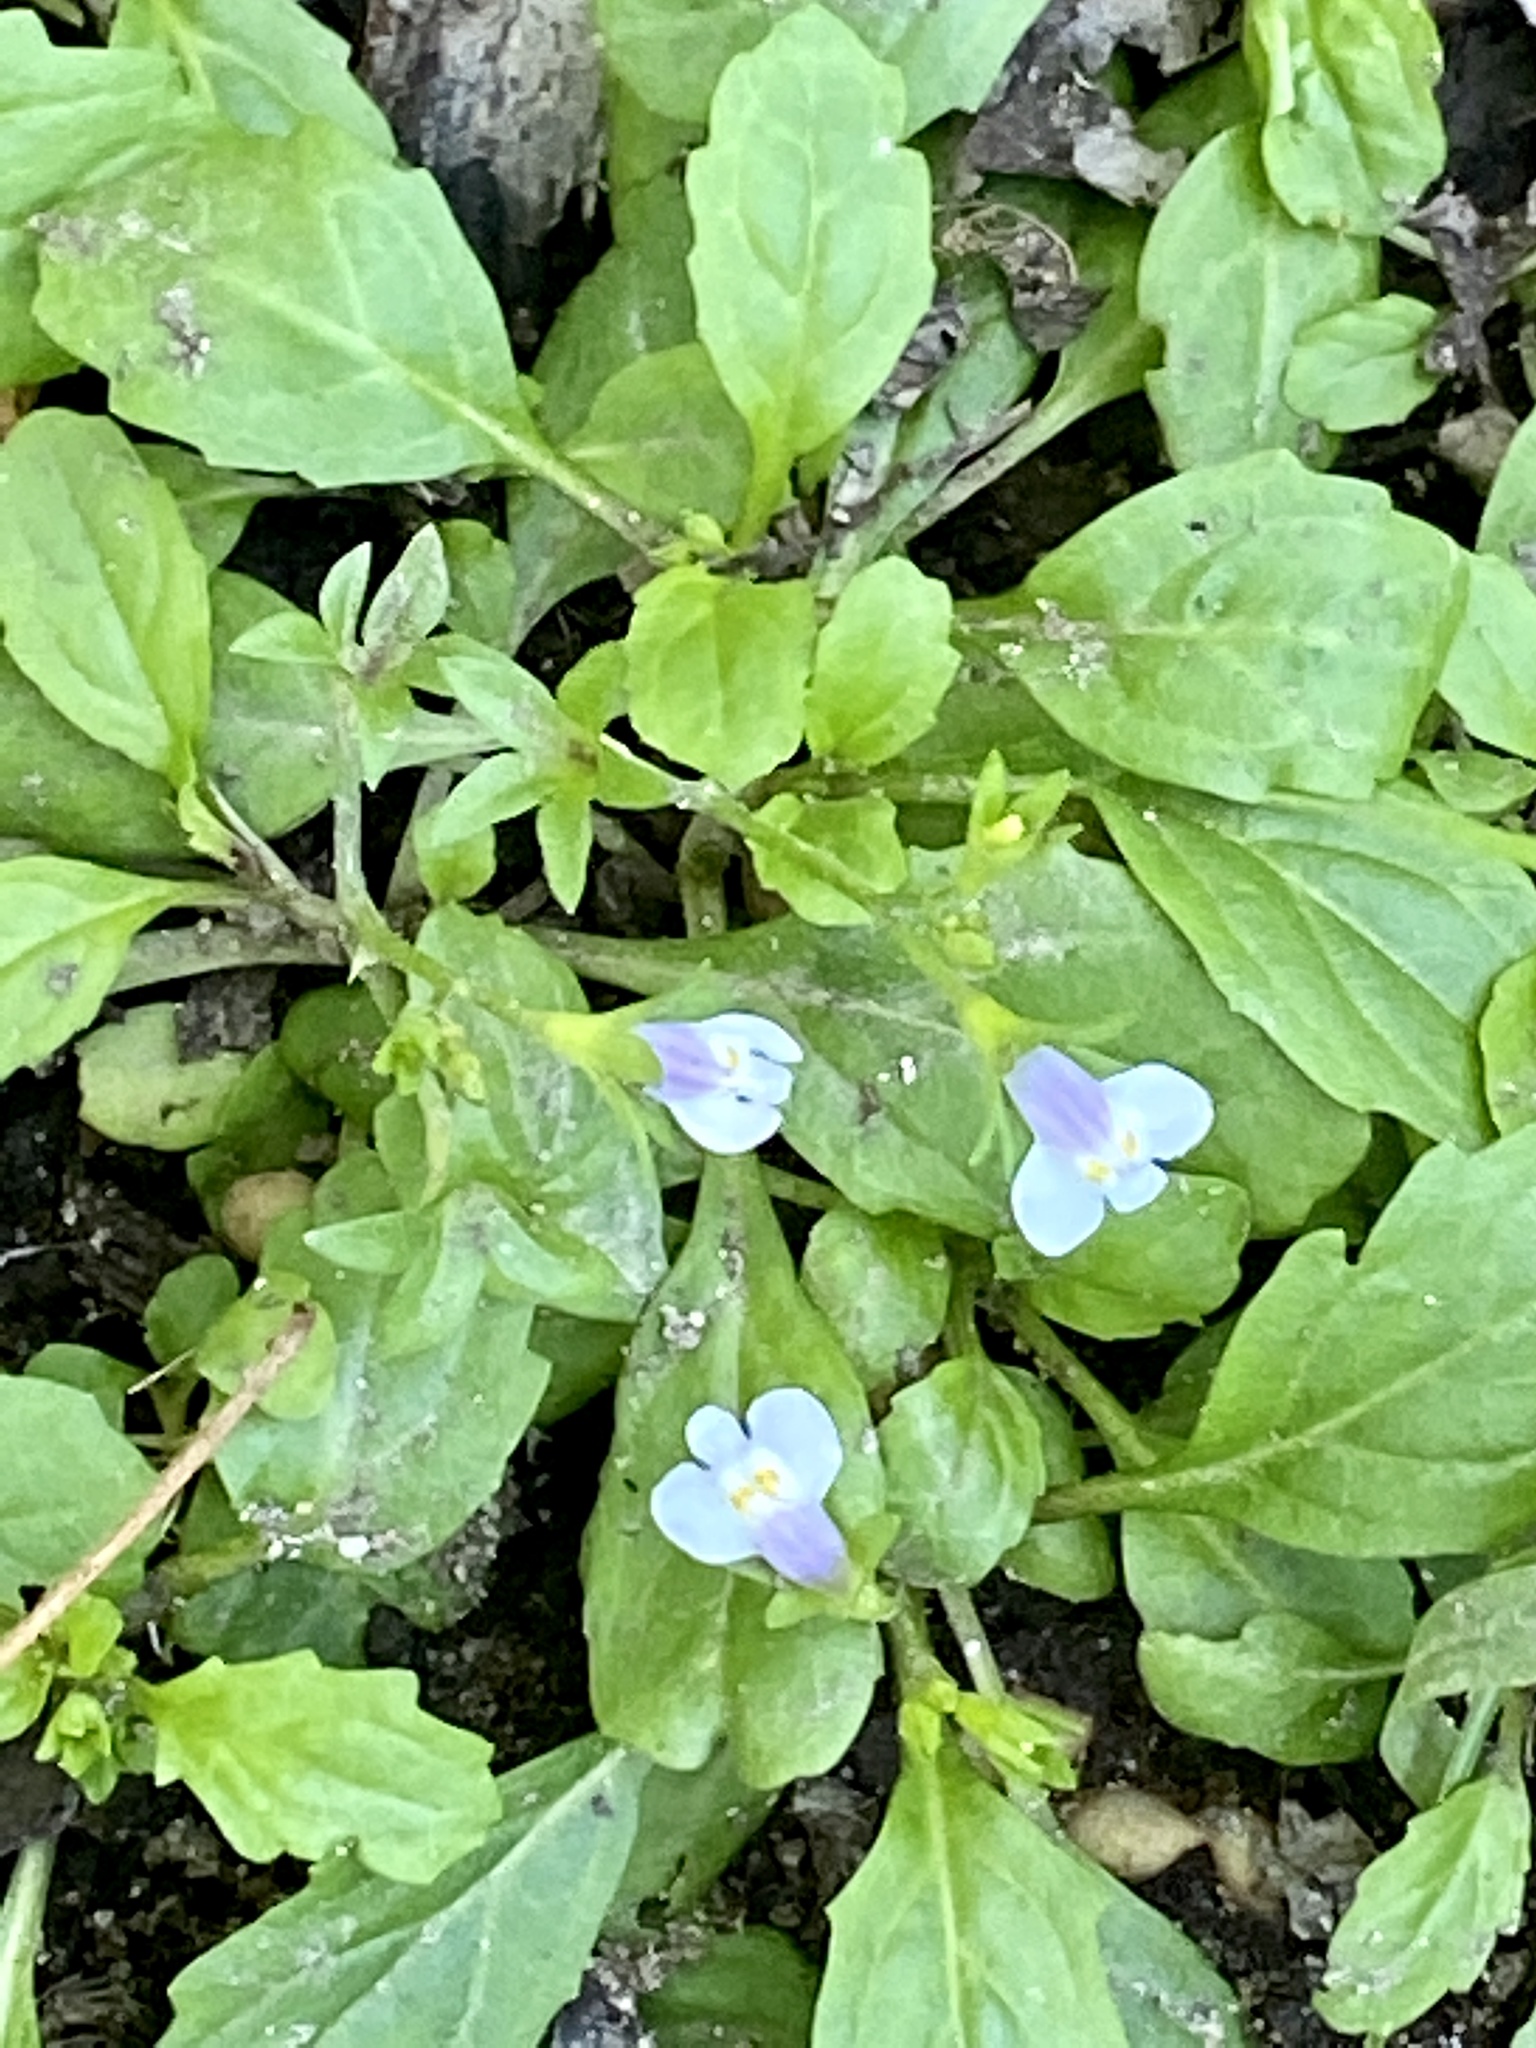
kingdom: Plantae
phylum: Tracheophyta
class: Magnoliopsida
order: Lamiales
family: Mazaceae
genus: Mazus
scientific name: Mazus pumilus
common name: Japanese mazus
